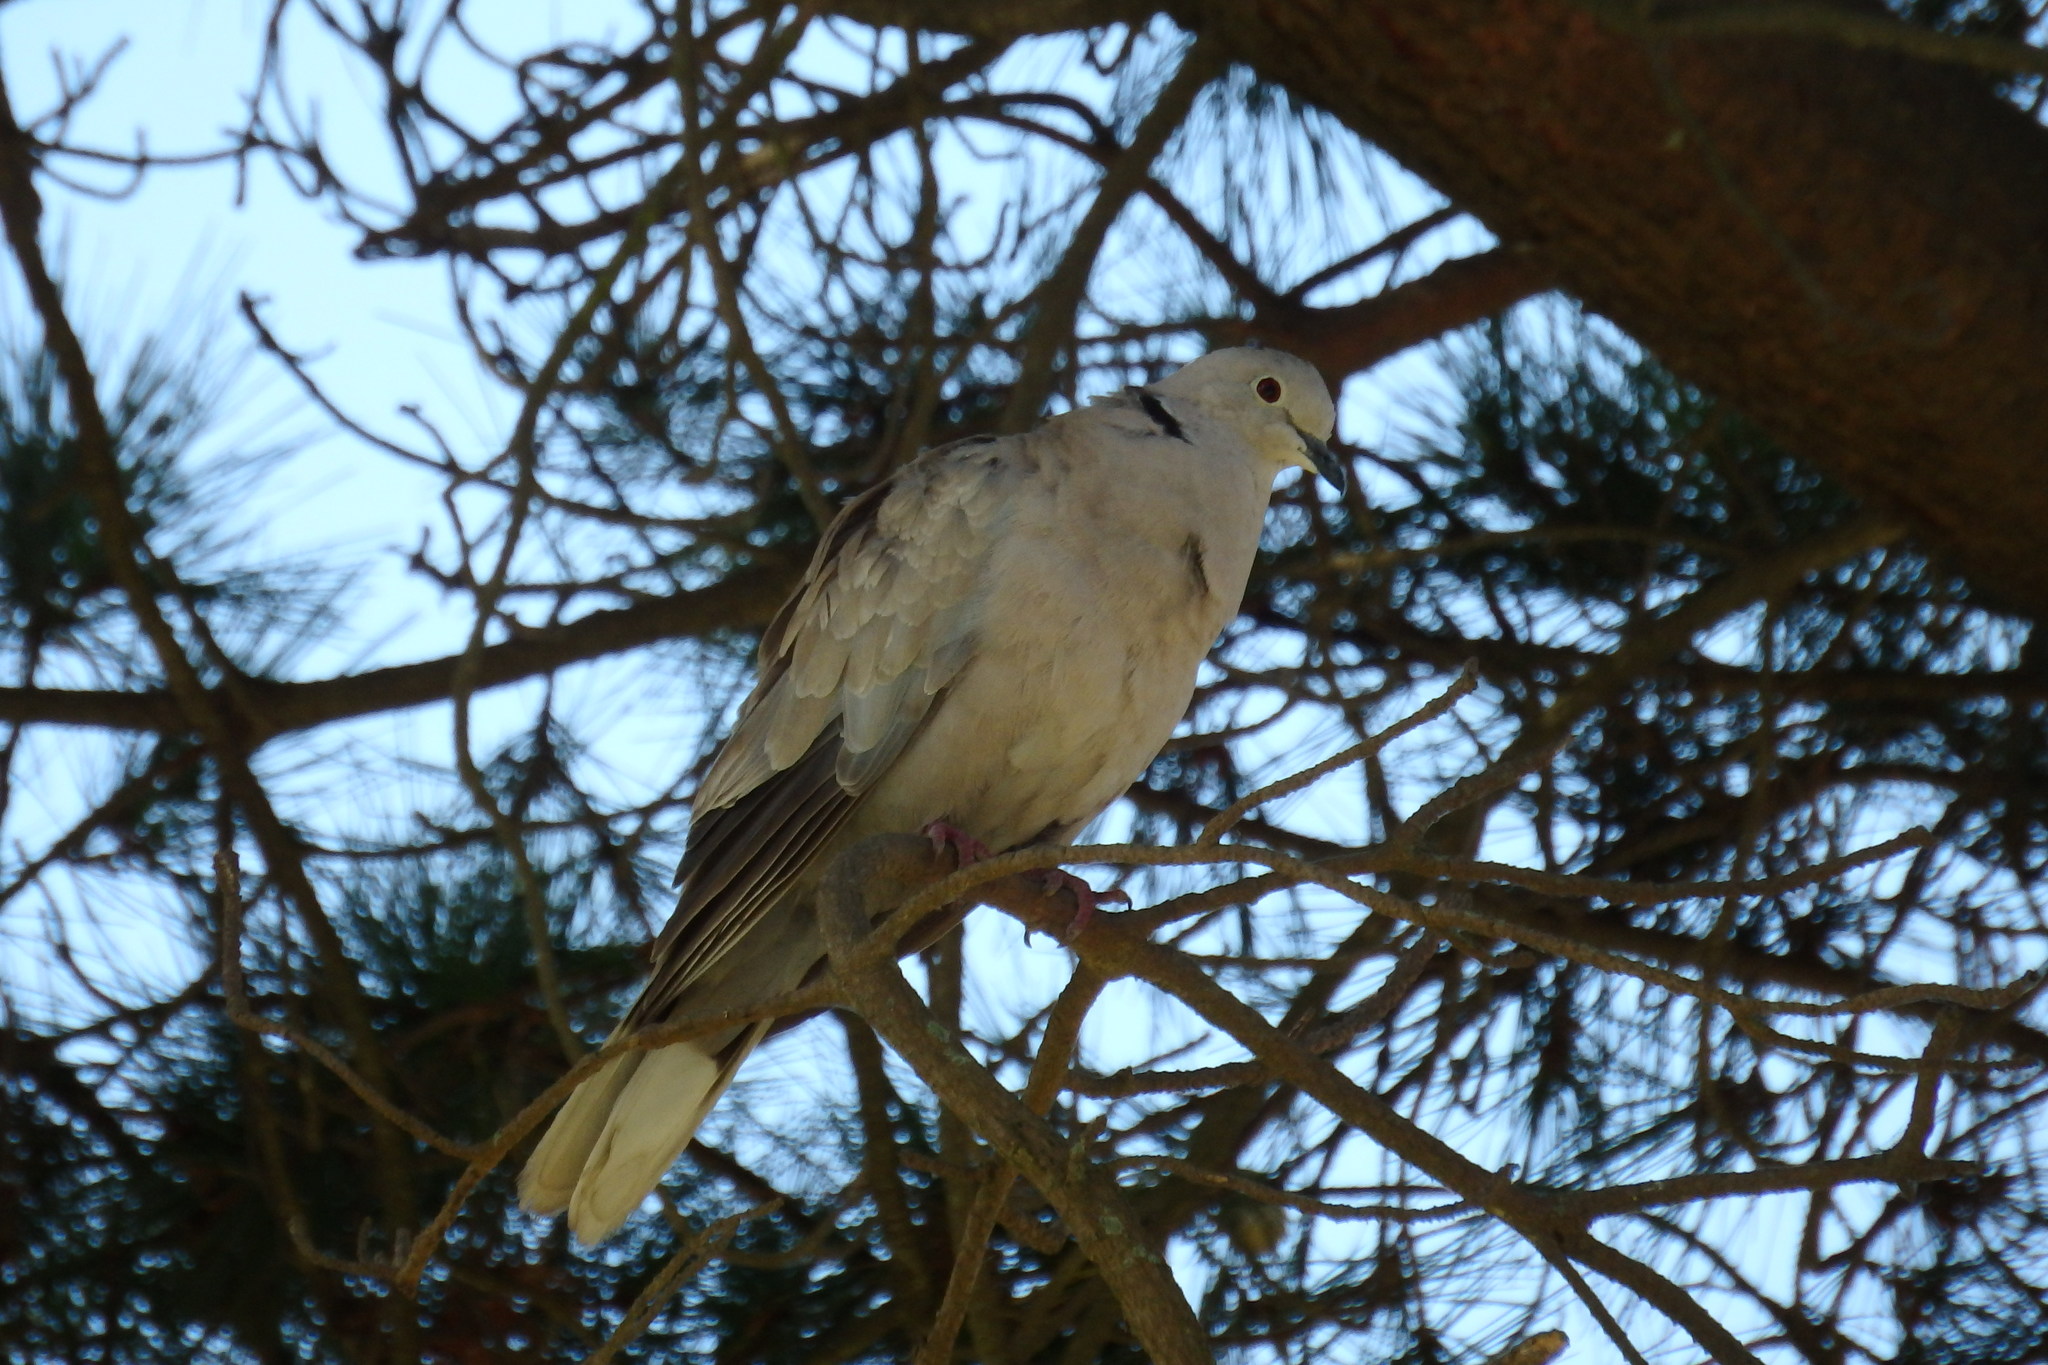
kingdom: Animalia
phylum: Chordata
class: Aves
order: Columbiformes
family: Columbidae
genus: Streptopelia
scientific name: Streptopelia decaocto
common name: Eurasian collared dove
